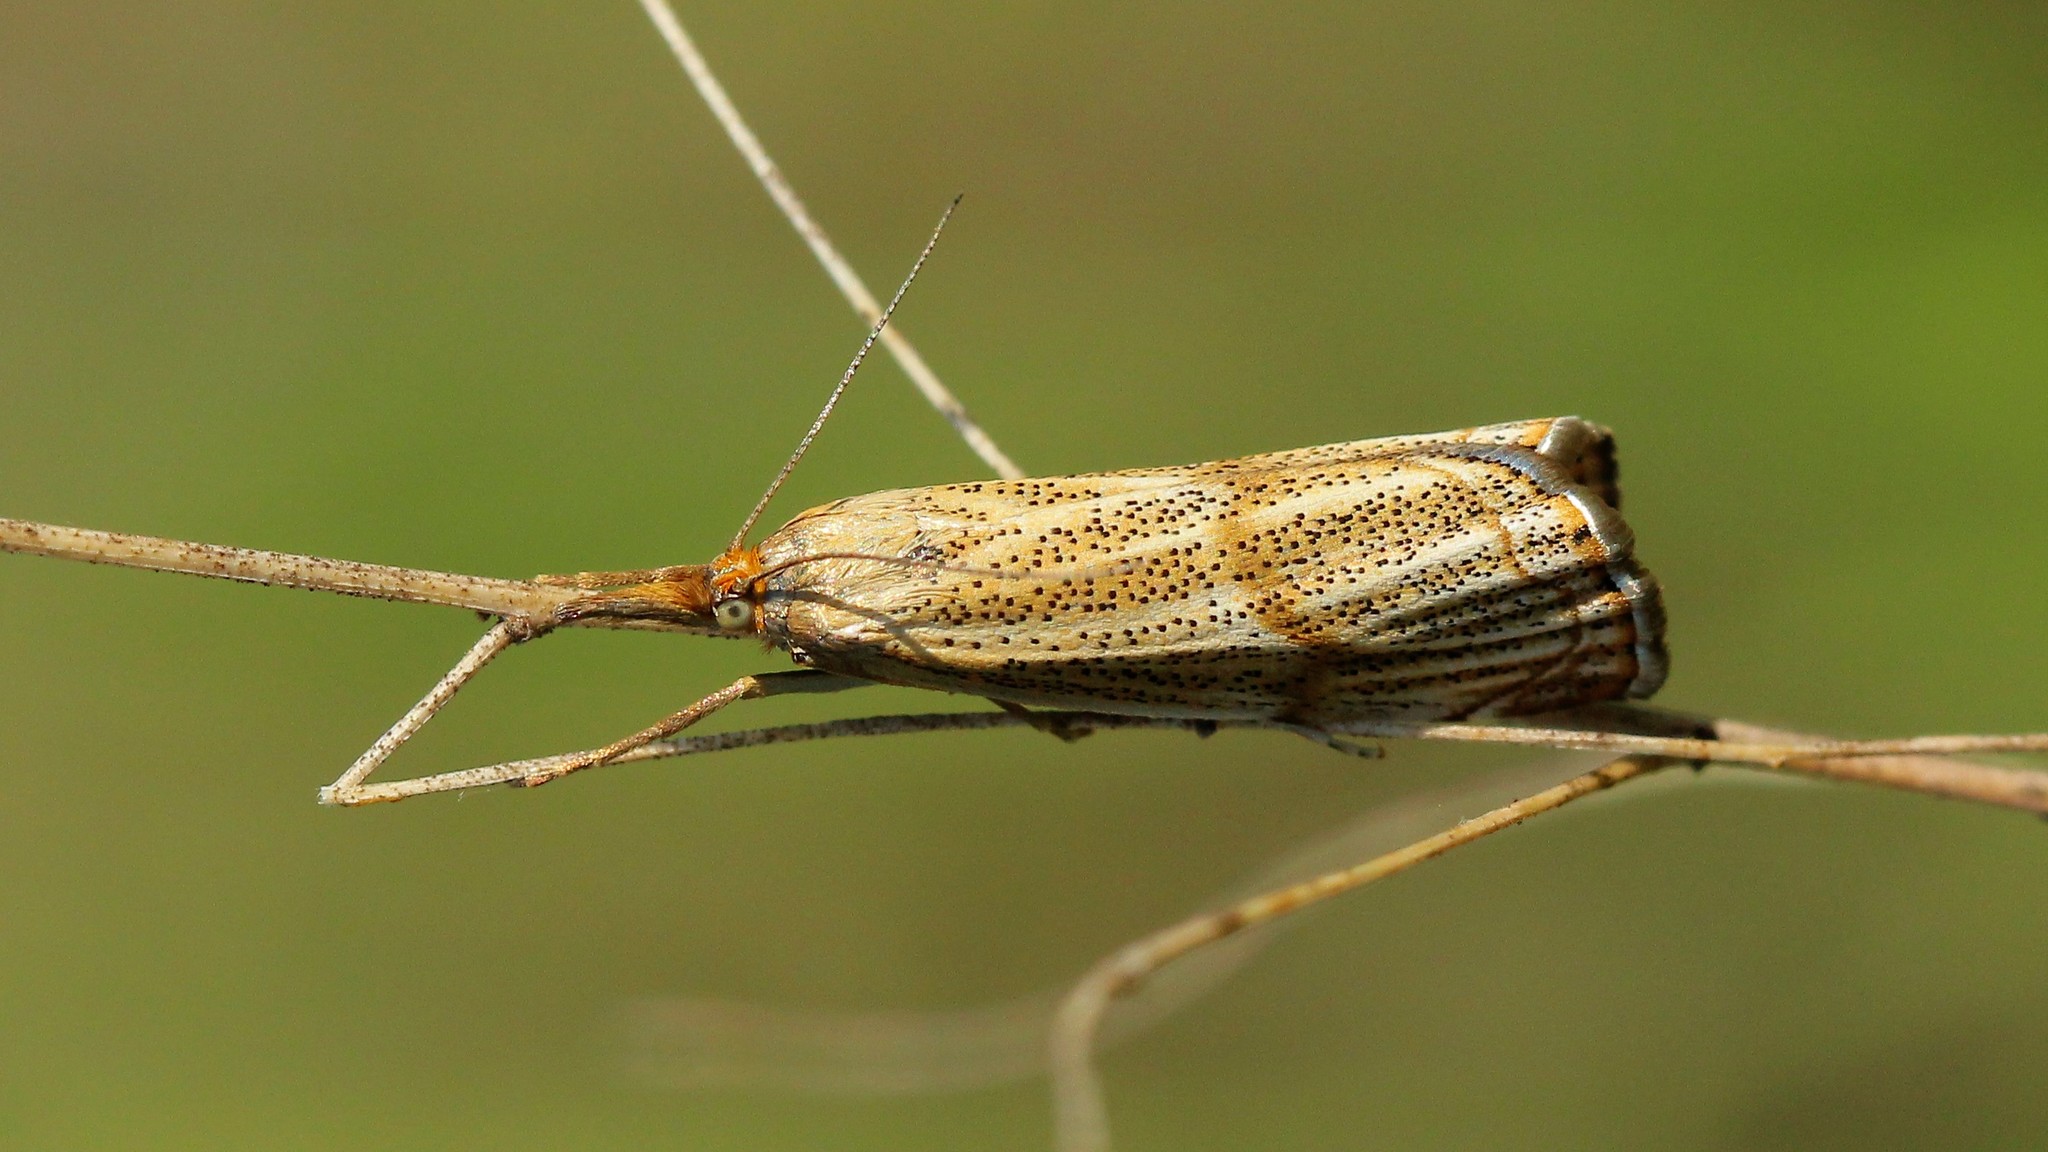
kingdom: Animalia
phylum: Arthropoda
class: Insecta
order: Lepidoptera
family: Crambidae
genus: Thisanotia
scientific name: Thisanotia chrysonuchella
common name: Powdered grass-veneer
